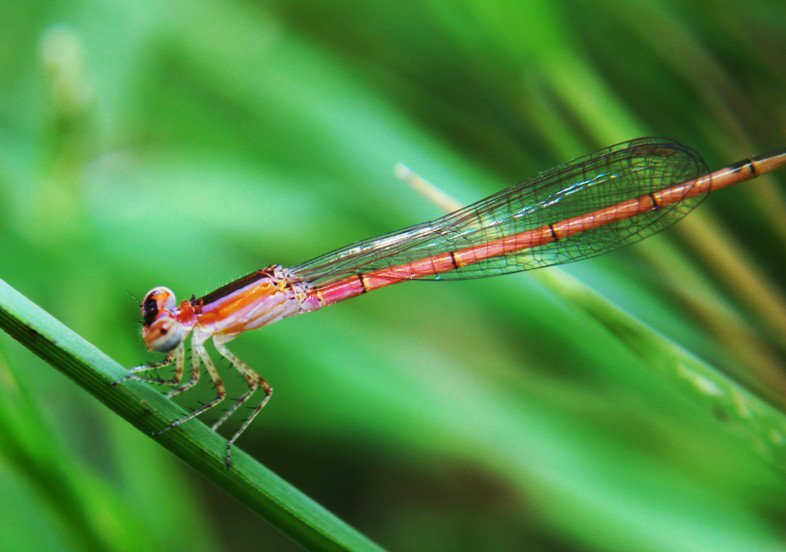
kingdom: Animalia
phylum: Arthropoda
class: Insecta
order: Odonata
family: Coenagrionidae
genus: Agriocnemis
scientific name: Agriocnemis femina
